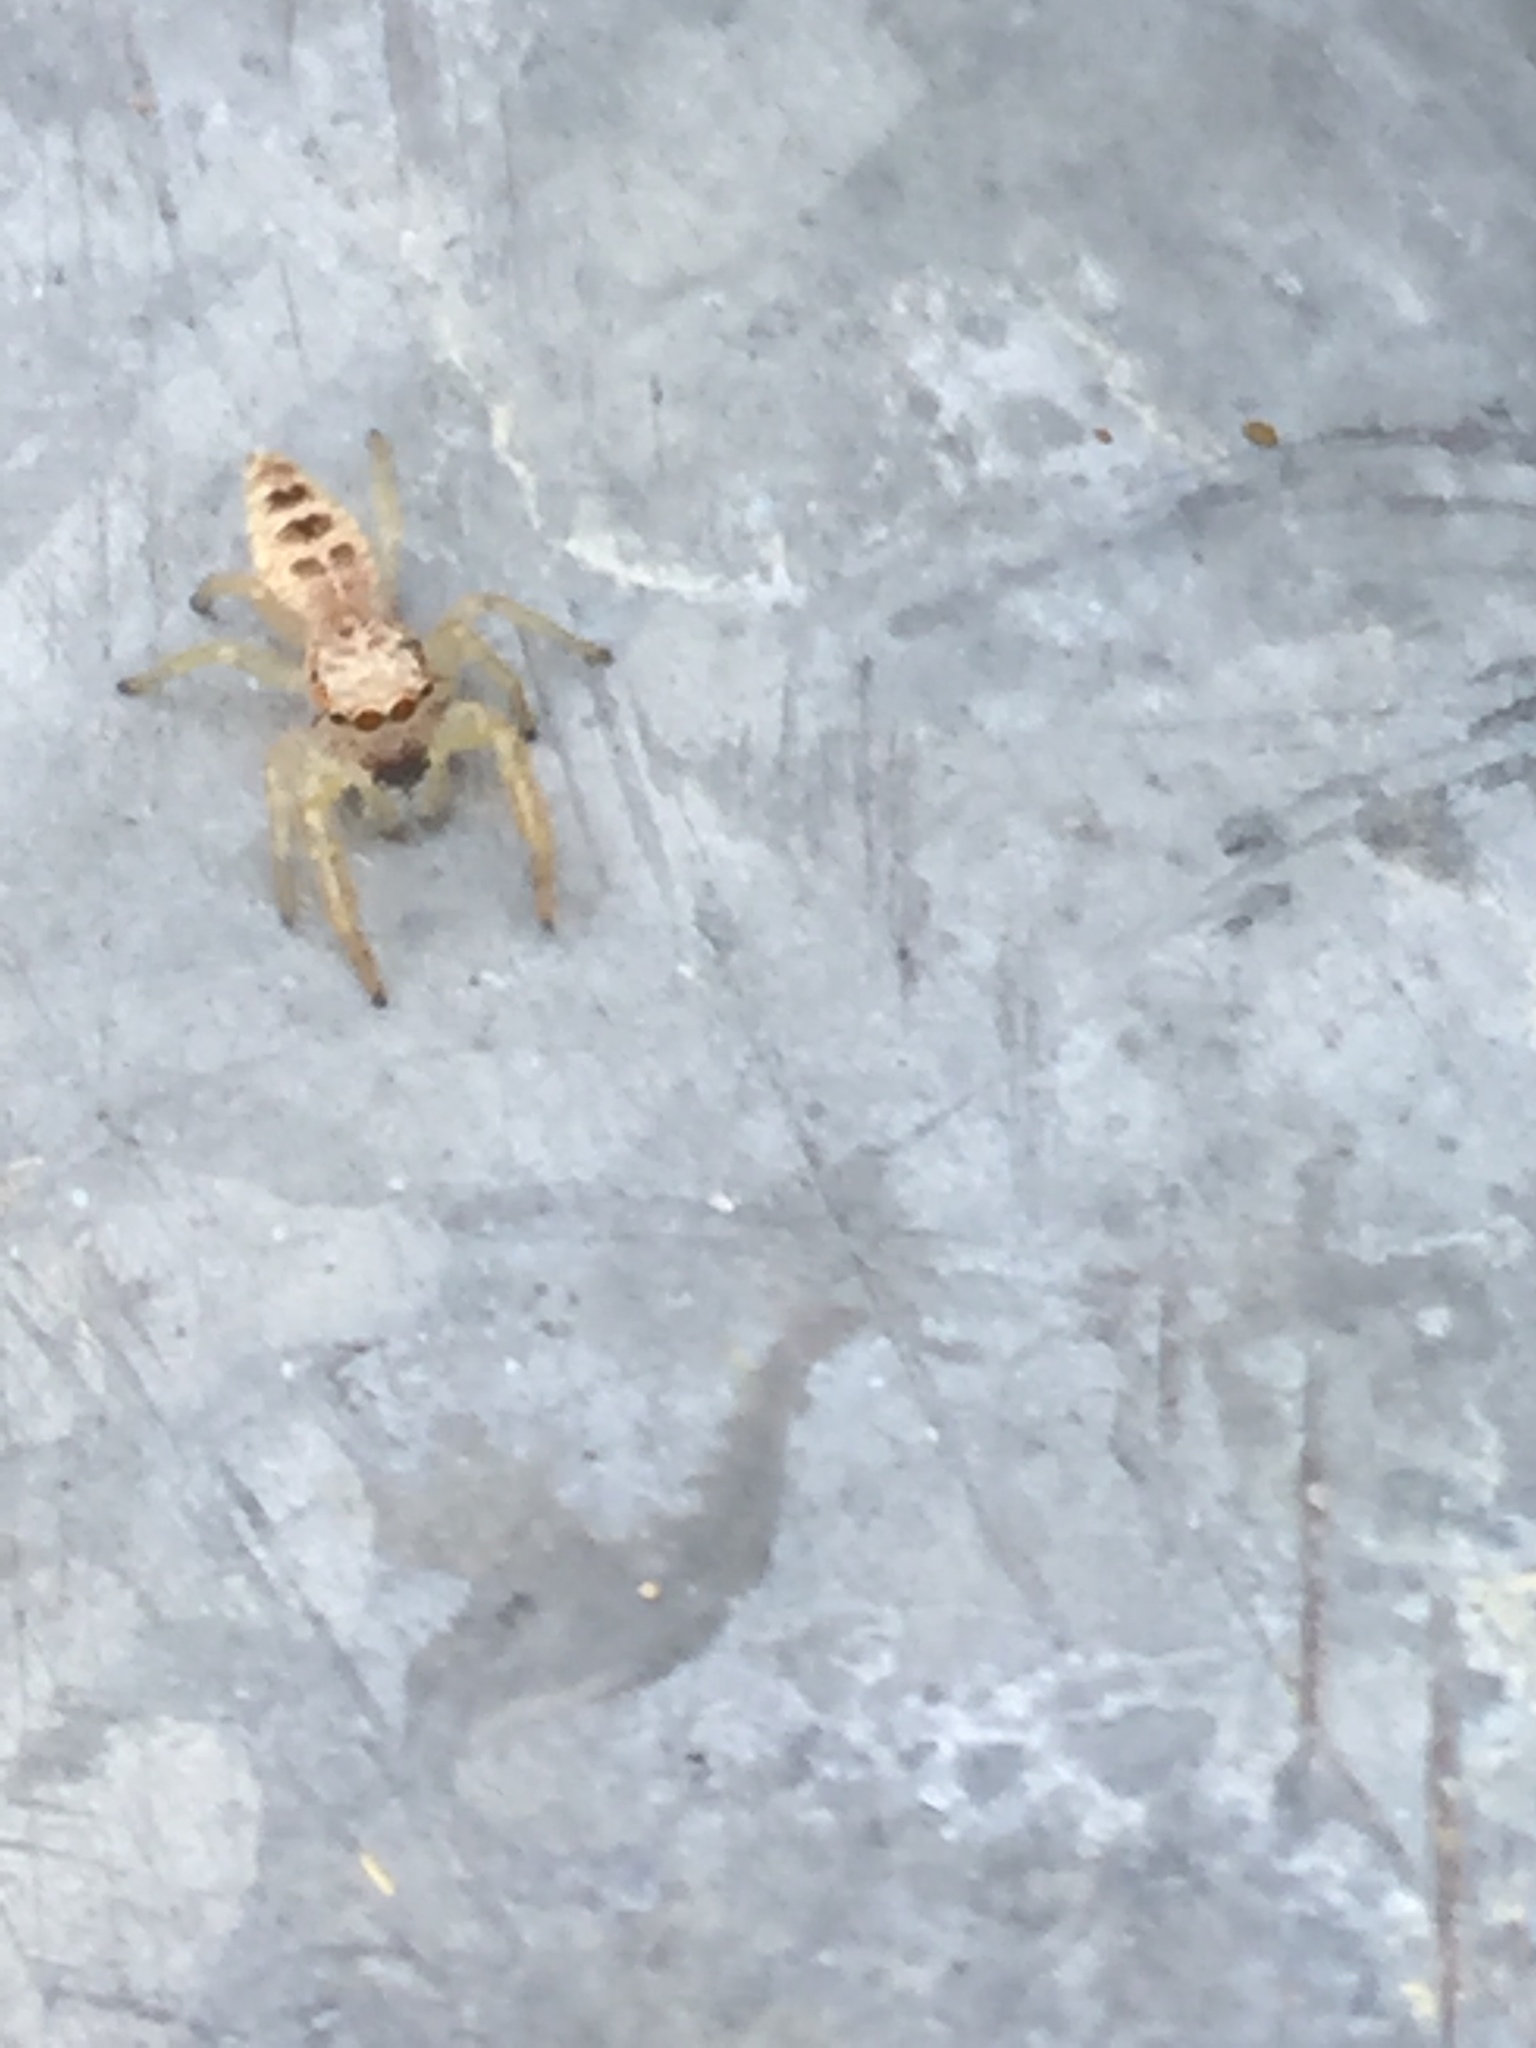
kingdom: Animalia
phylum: Arthropoda
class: Arachnida
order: Araneae
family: Salticidae
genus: Hentzia
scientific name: Hentzia mitrata
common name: White-jawed jumping spider
